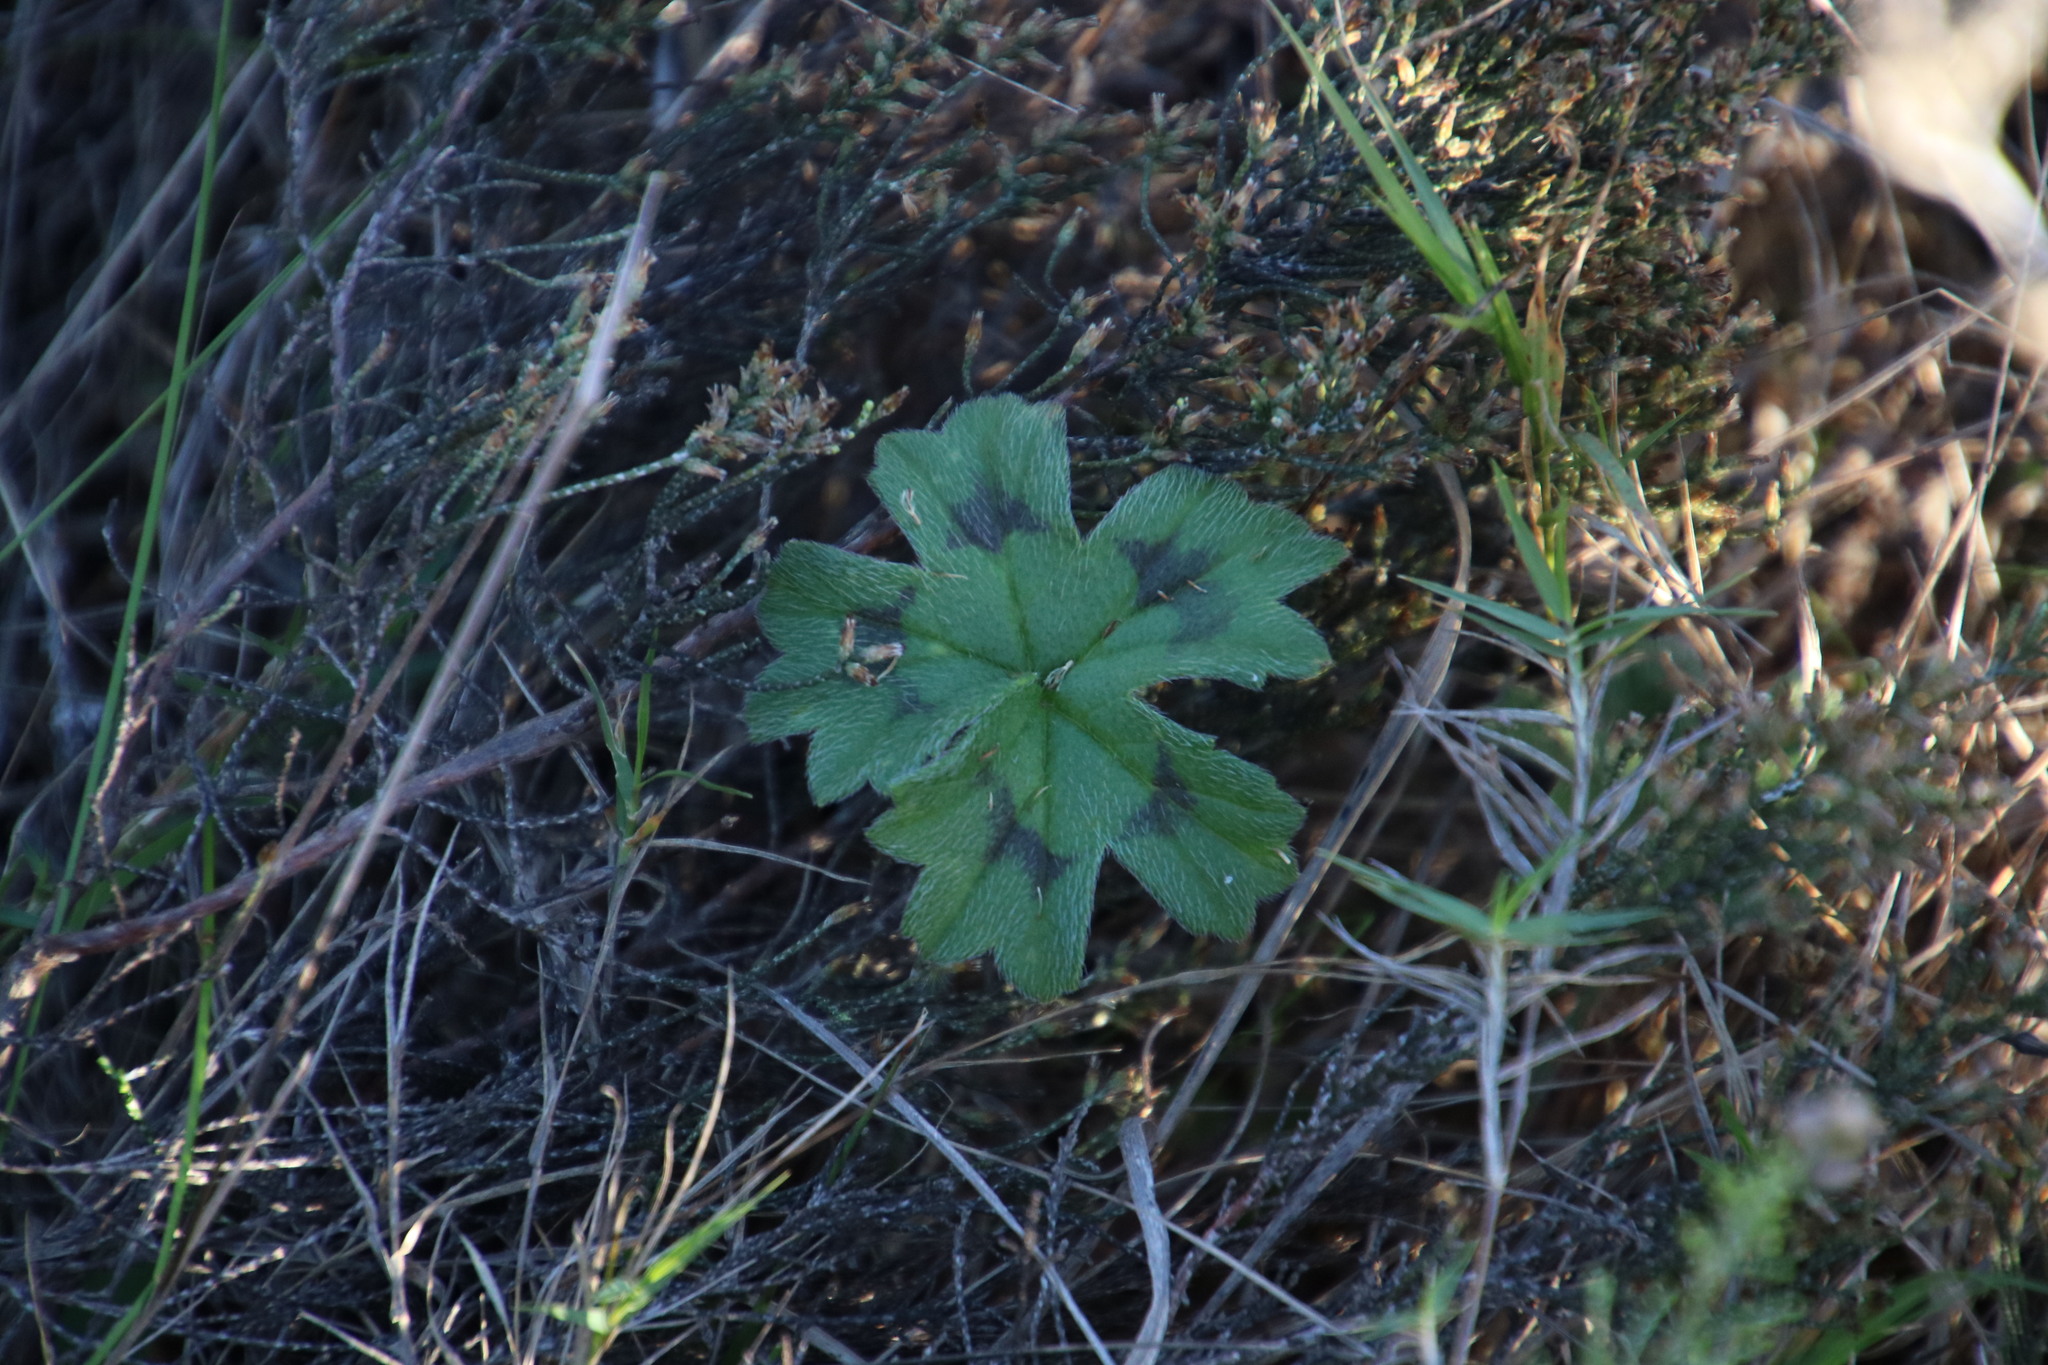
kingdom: Plantae
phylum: Tracheophyta
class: Magnoliopsida
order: Geraniales
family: Geraniaceae
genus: Pelargonium
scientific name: Pelargonium alchemilloides
